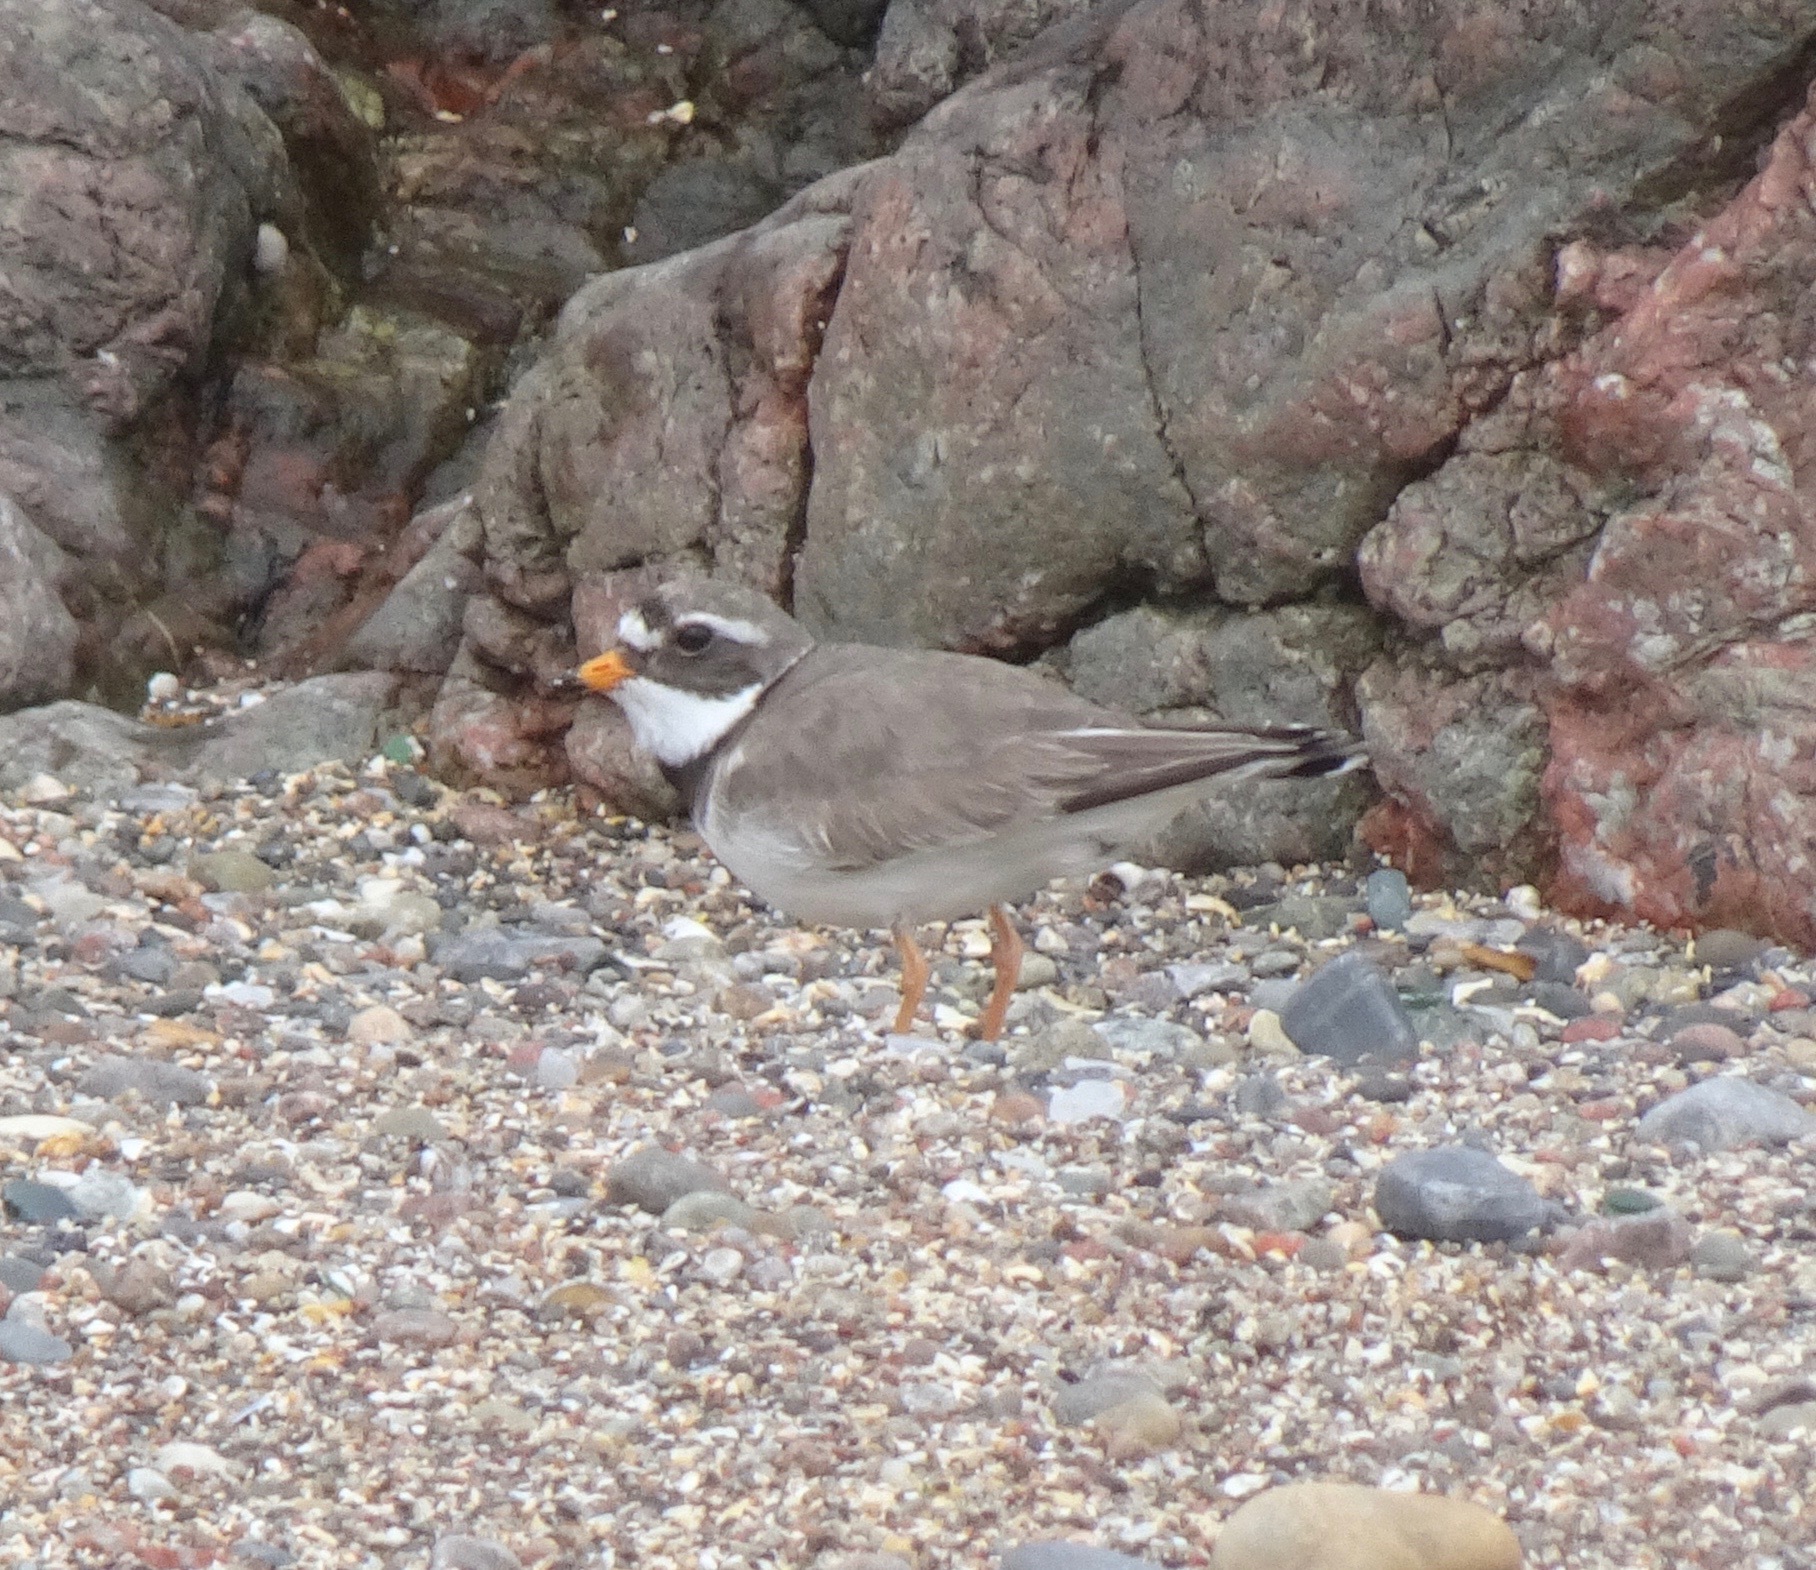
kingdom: Animalia
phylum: Chordata
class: Aves
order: Charadriiformes
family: Charadriidae
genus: Charadrius
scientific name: Charadrius hiaticula
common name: Common ringed plover
